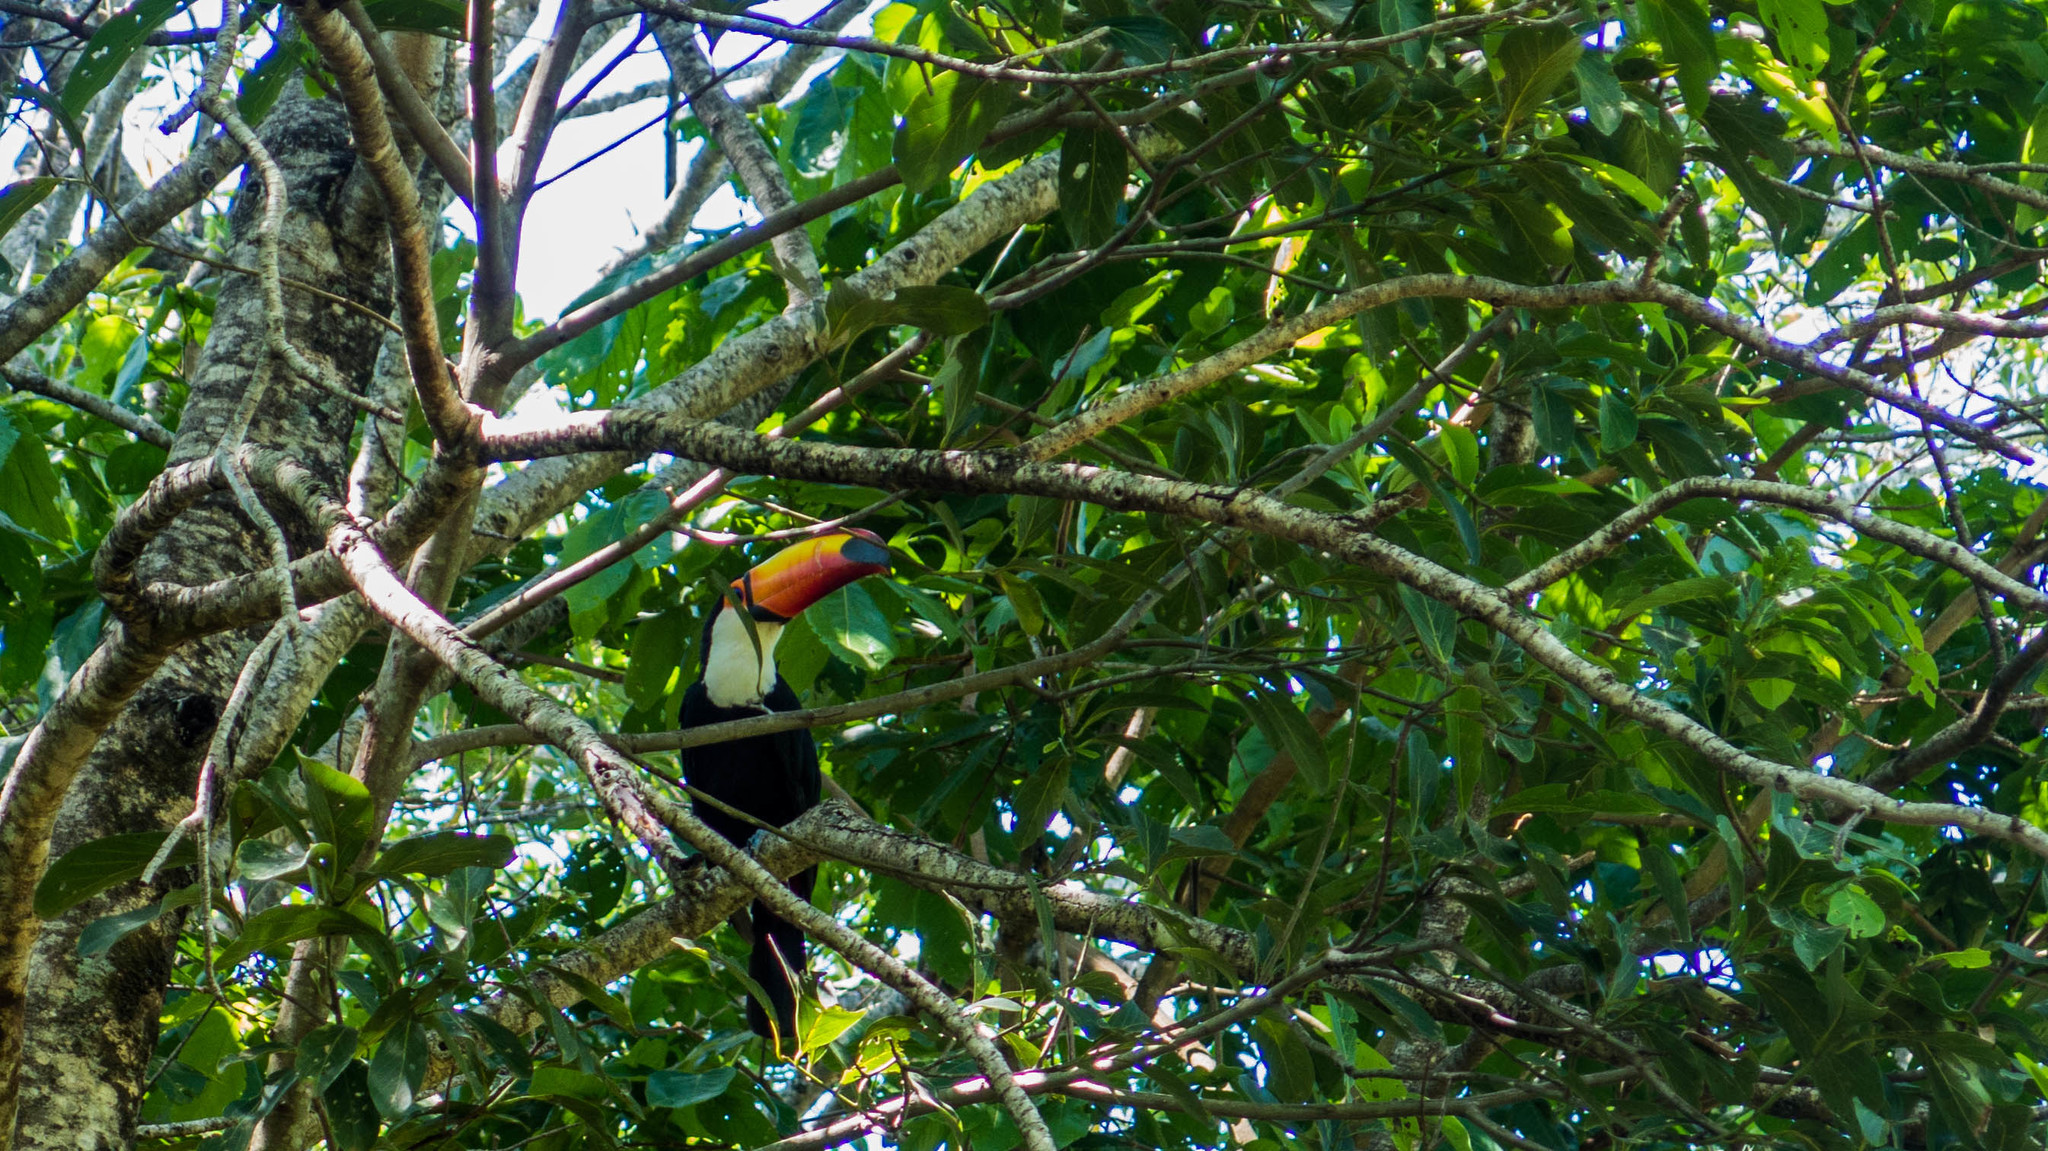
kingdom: Animalia
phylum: Chordata
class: Aves
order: Piciformes
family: Ramphastidae
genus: Ramphastos
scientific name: Ramphastos toco
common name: Toco toucan
